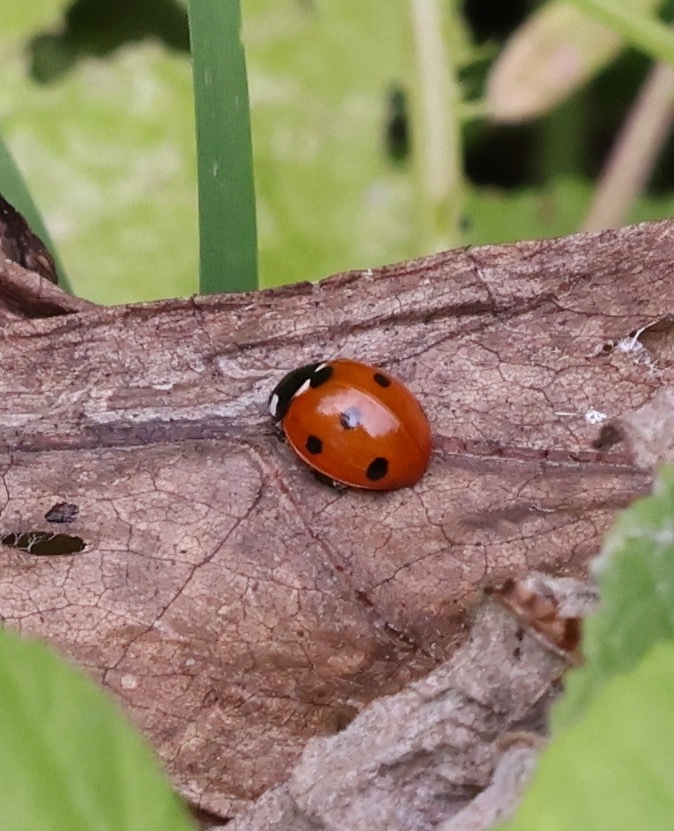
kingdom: Animalia
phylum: Arthropoda
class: Insecta
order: Coleoptera
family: Coccinellidae
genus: Coccinella
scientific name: Coccinella septempunctata
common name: Sevenspotted lady beetle
